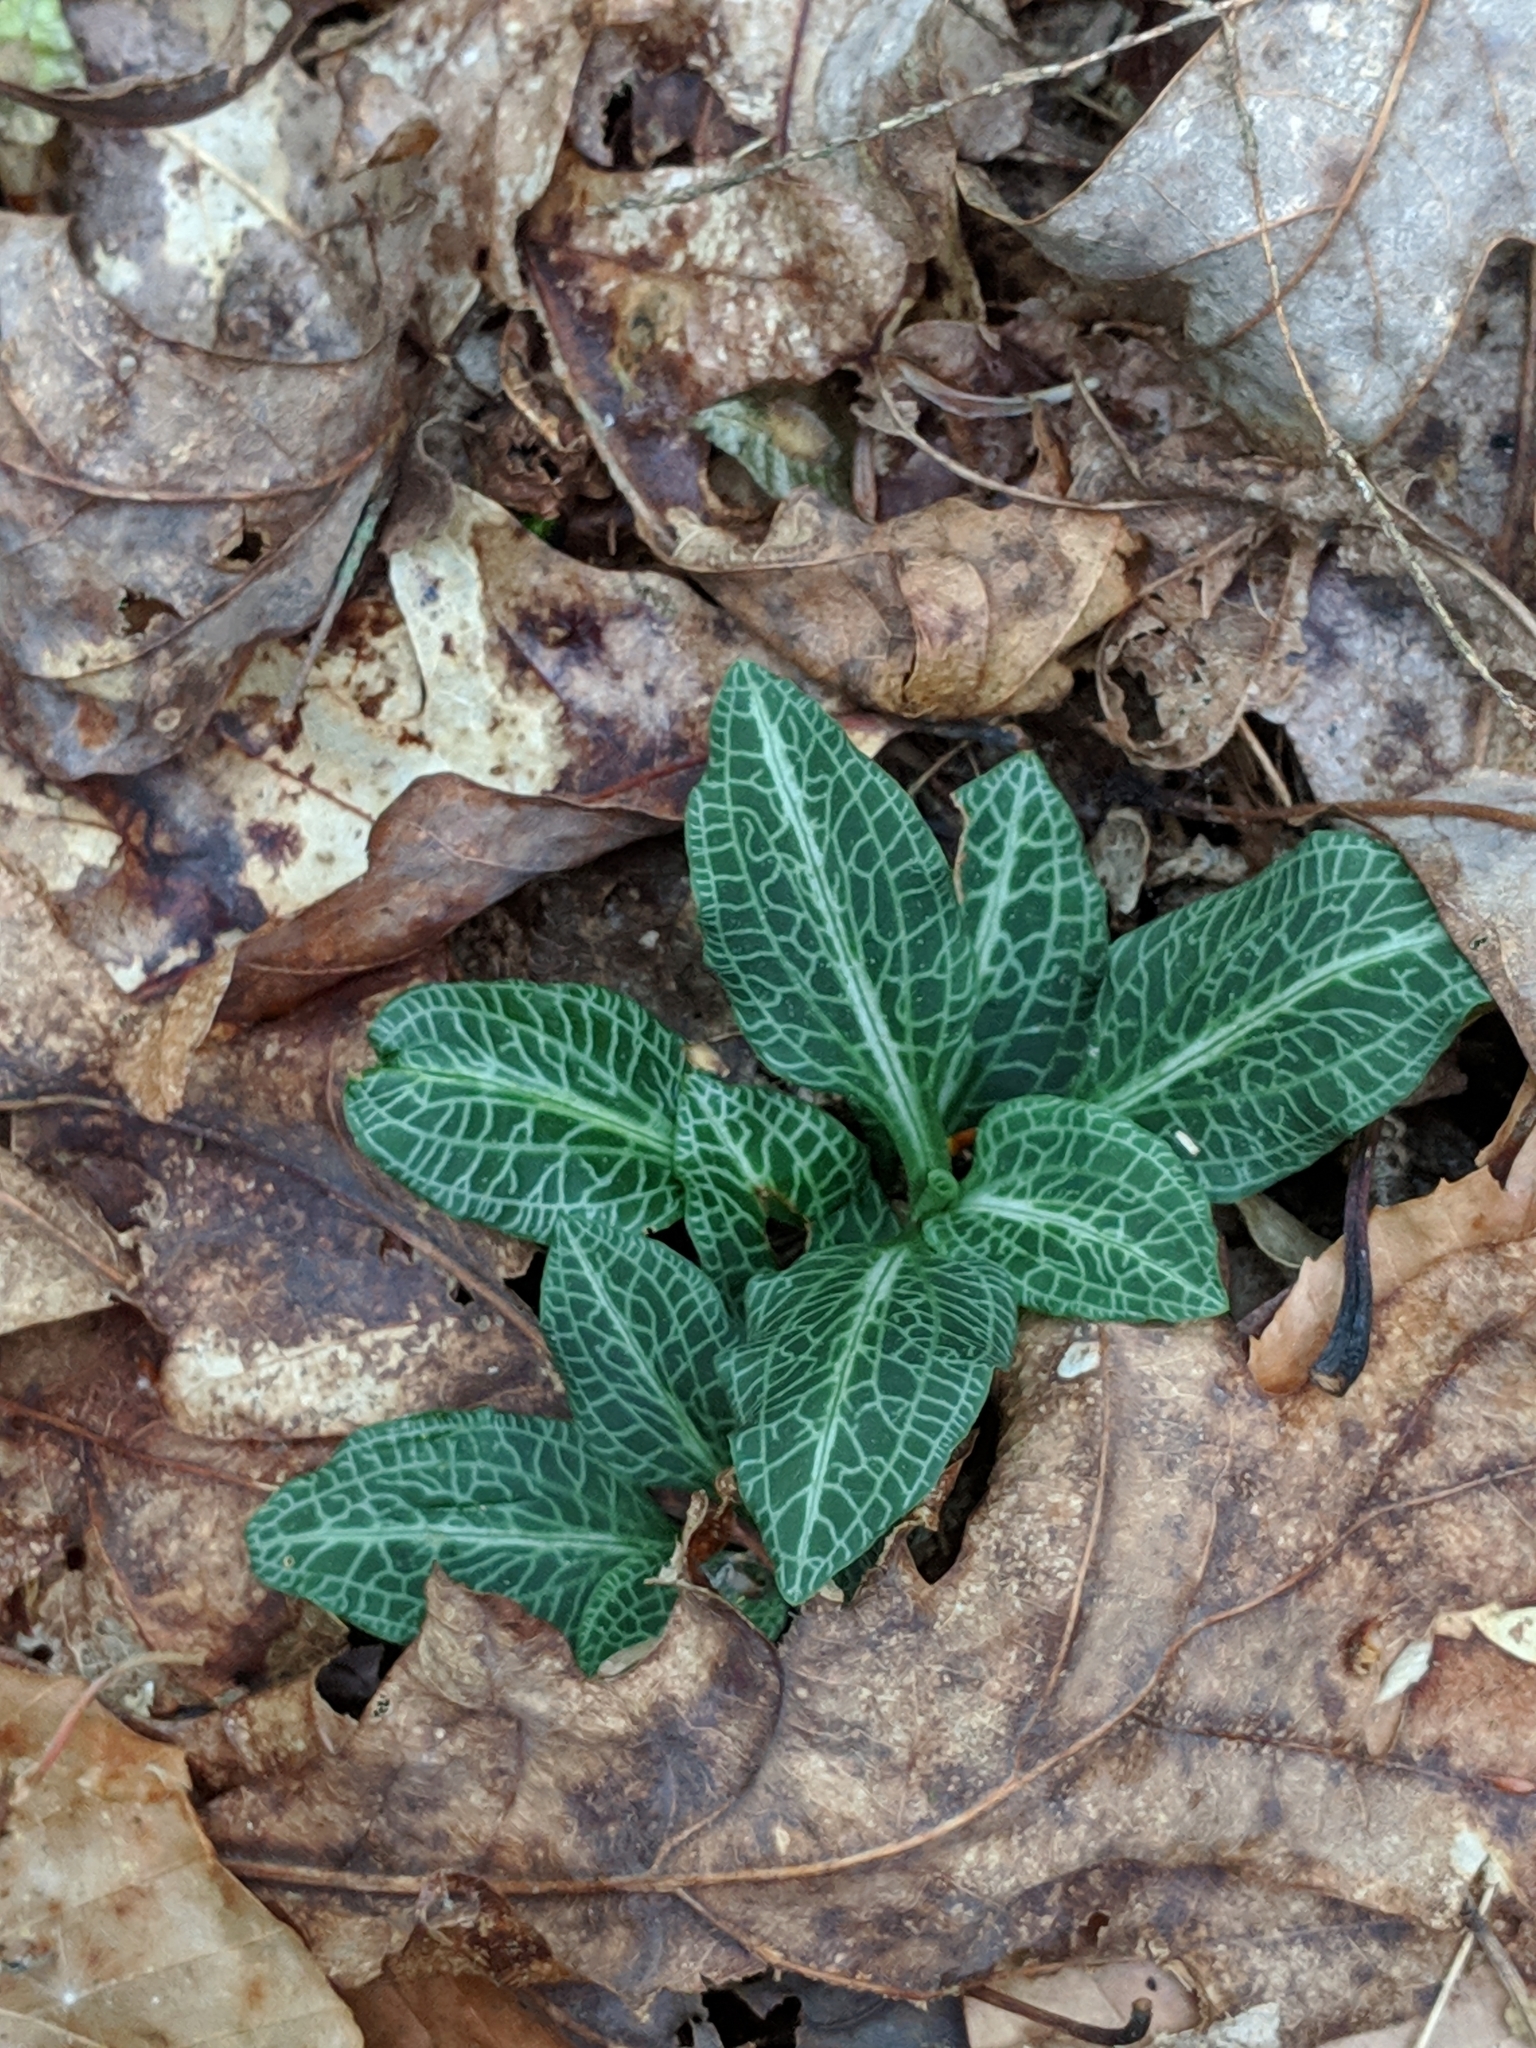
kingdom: Plantae
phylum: Tracheophyta
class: Liliopsida
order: Asparagales
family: Orchidaceae
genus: Goodyera
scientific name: Goodyera pubescens
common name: Downy rattlesnake-plantain
